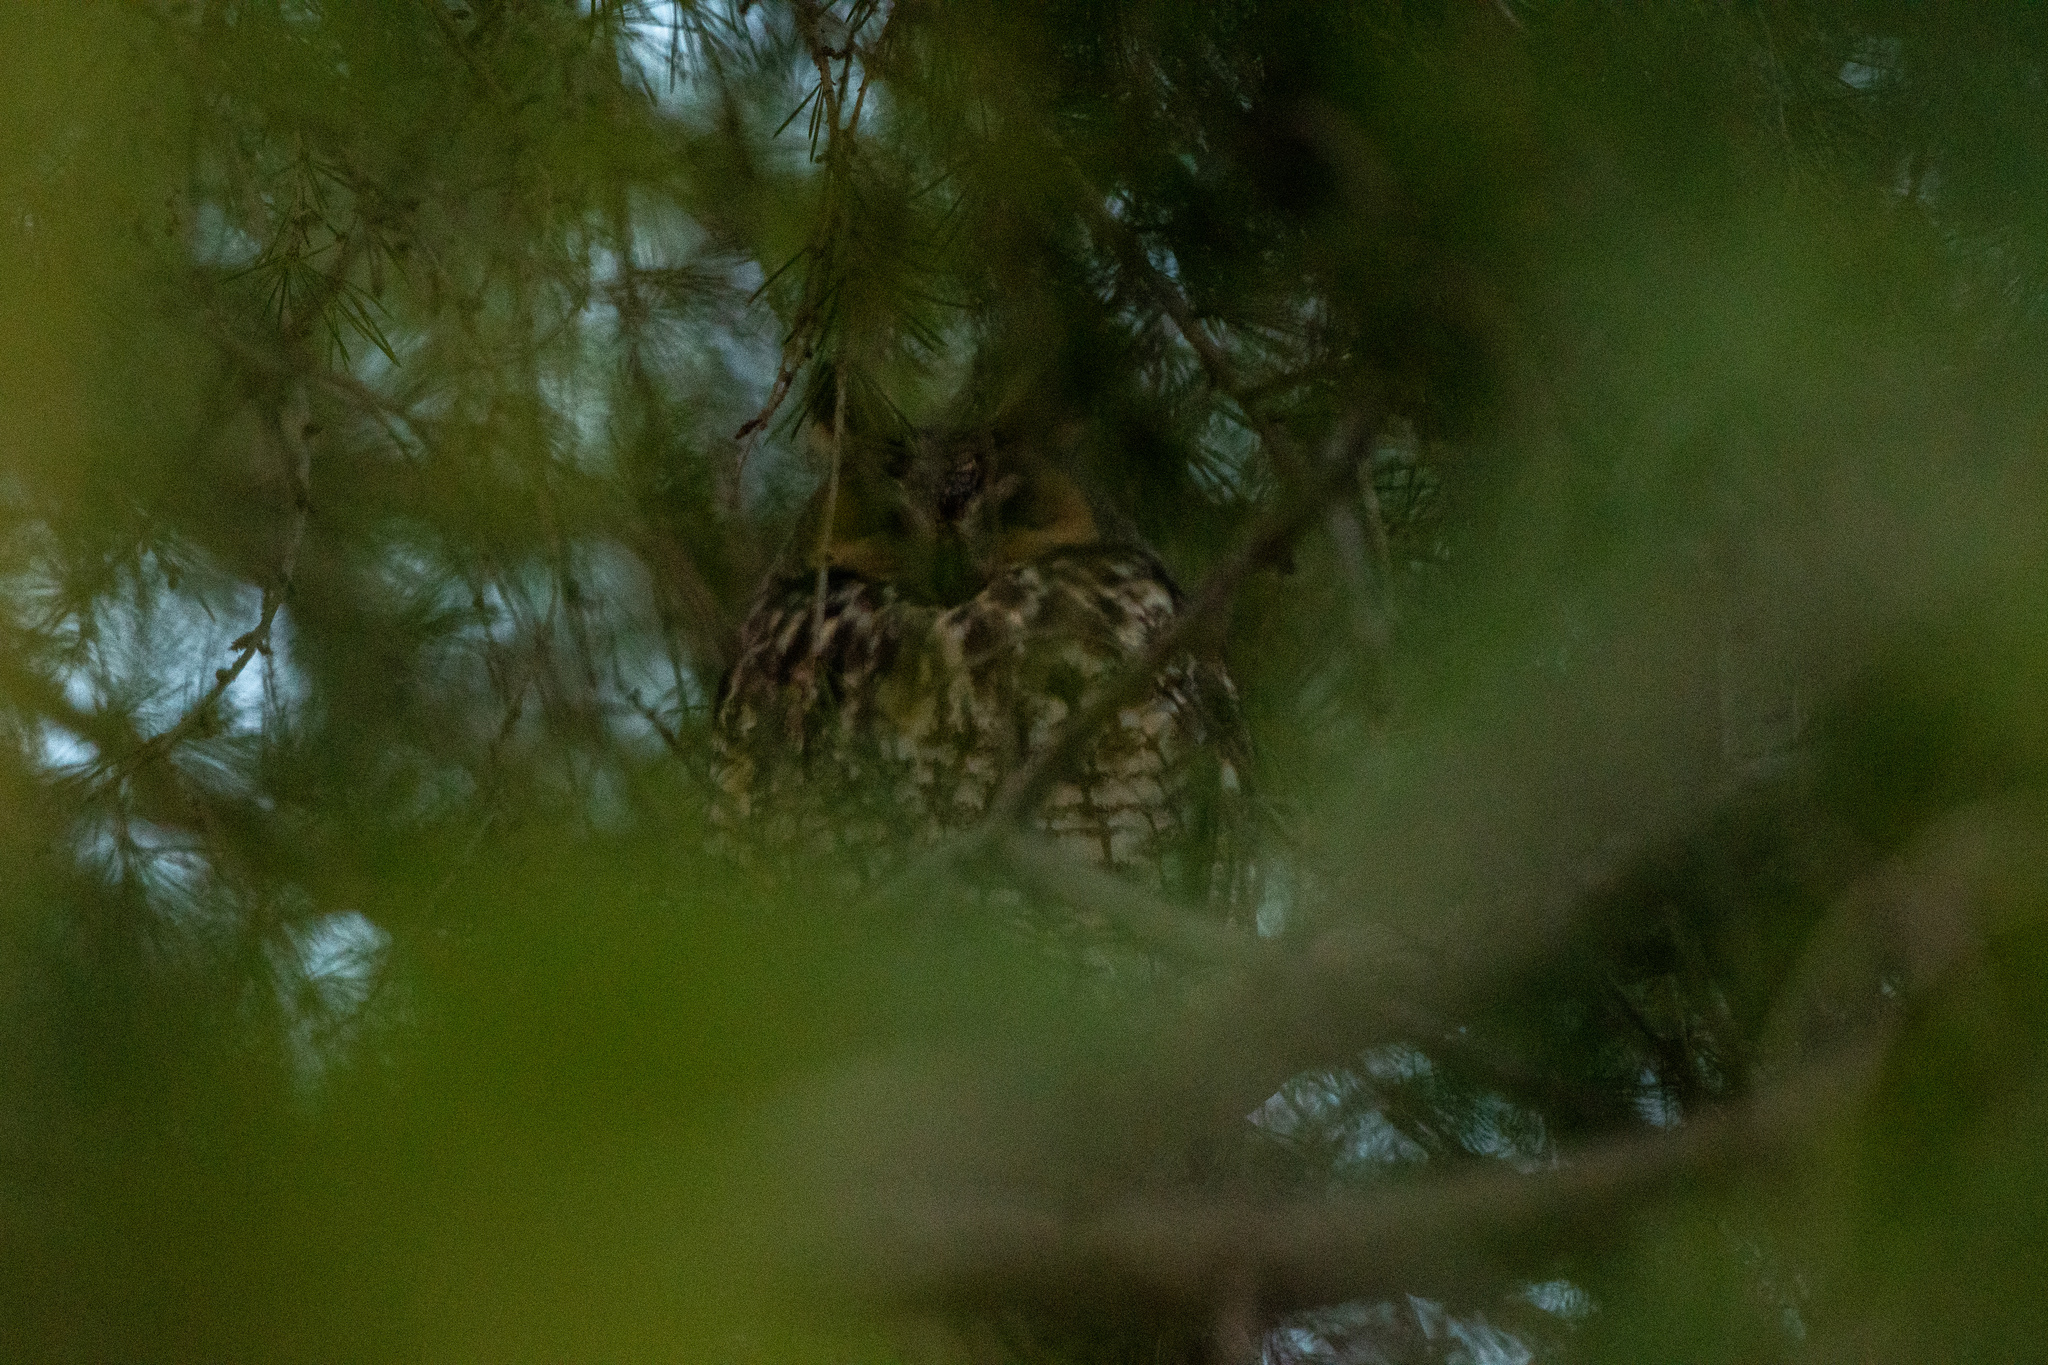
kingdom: Animalia
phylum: Chordata
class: Aves
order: Strigiformes
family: Strigidae
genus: Asio
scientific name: Asio otus
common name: Long-eared owl
